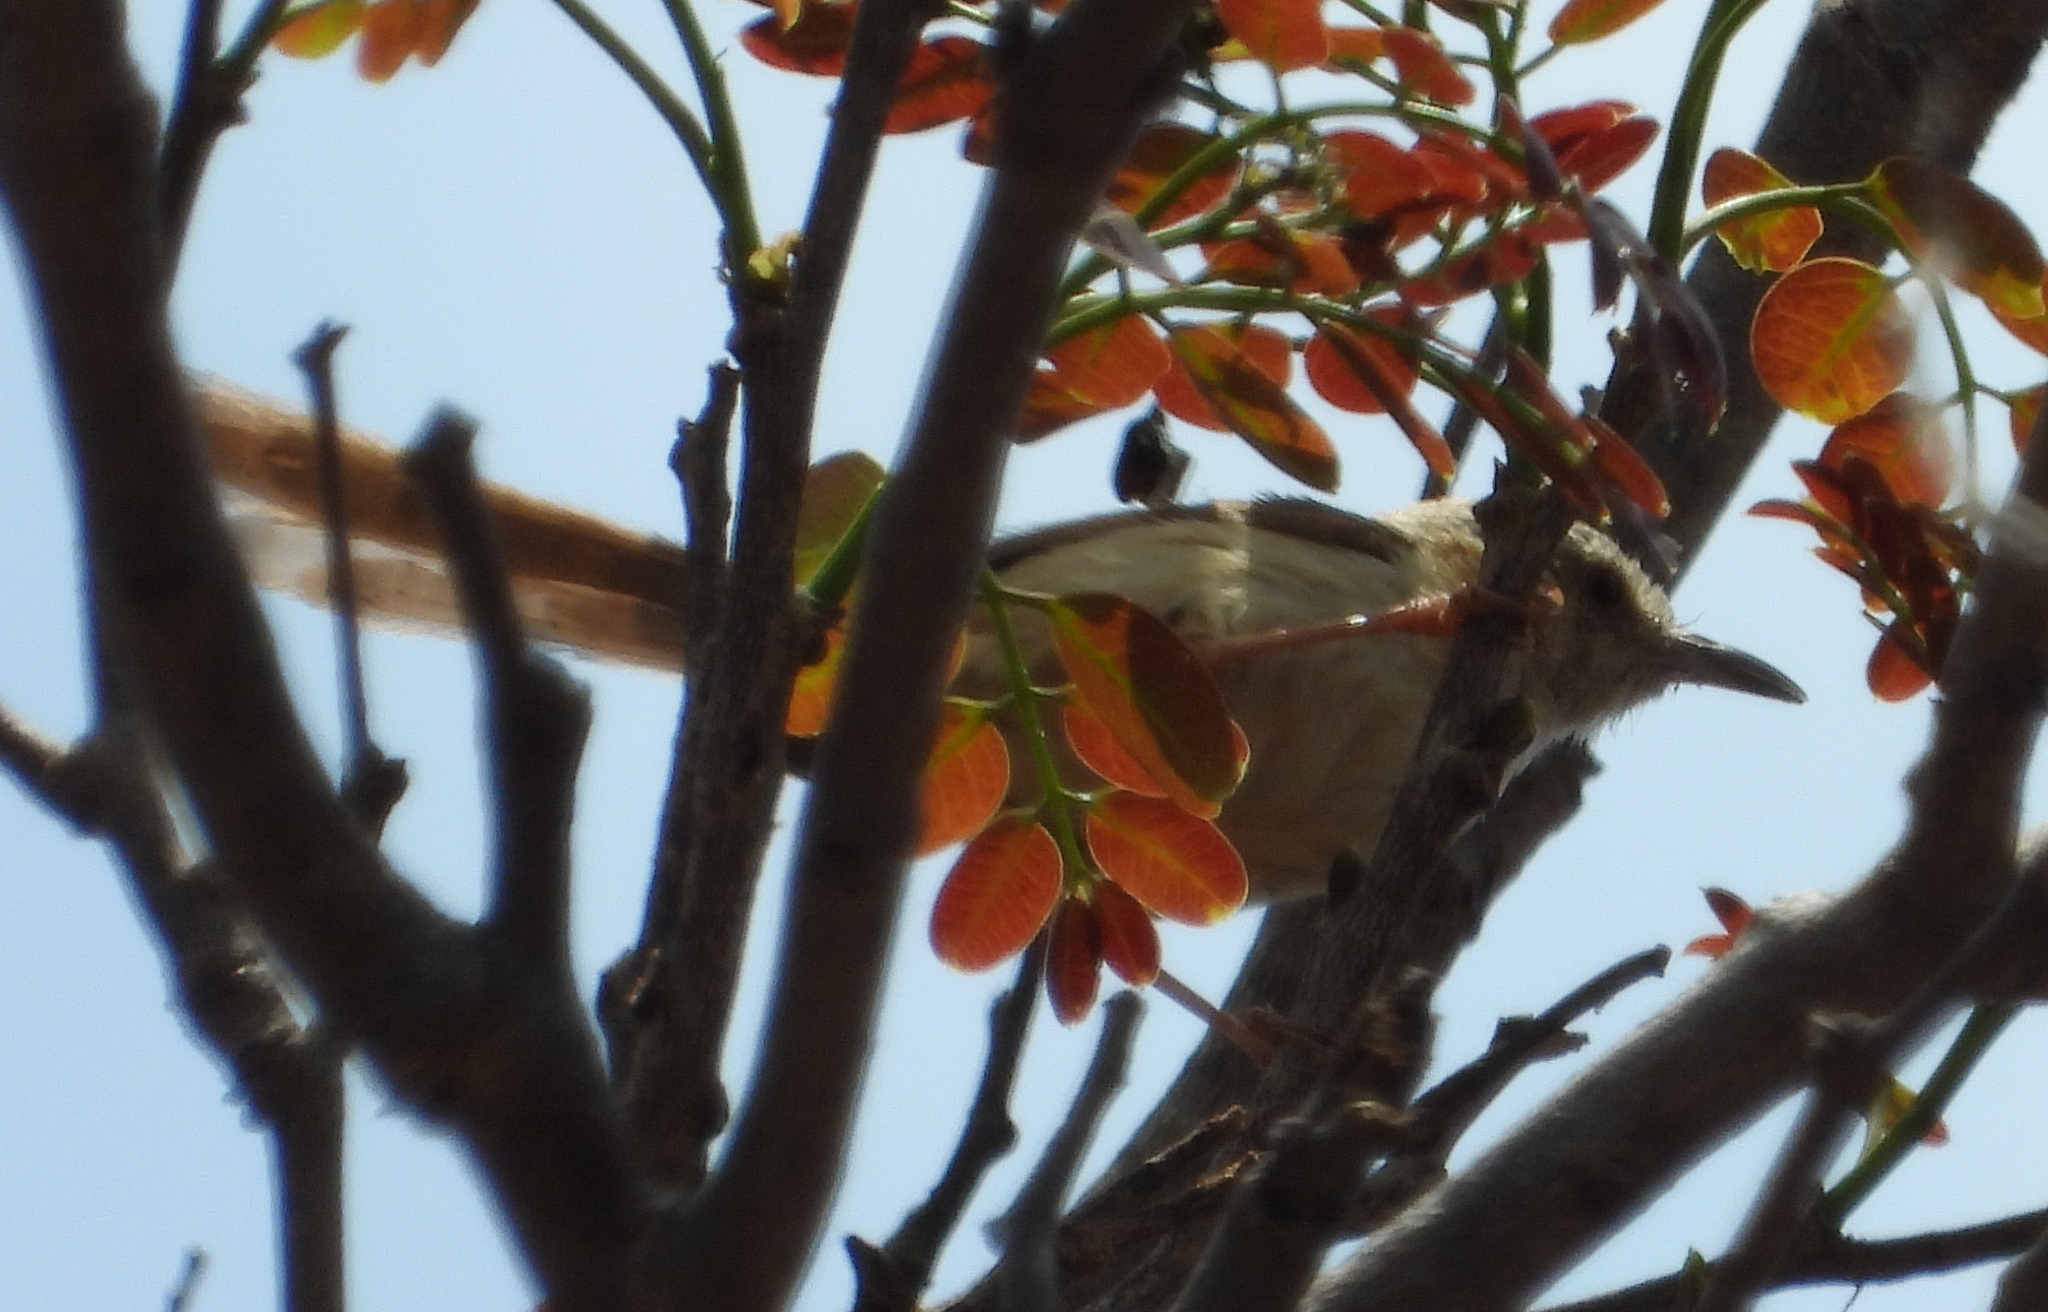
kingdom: Animalia
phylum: Chordata
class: Aves
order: Passeriformes
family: Cisticolidae
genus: Prinia
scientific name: Prinia subflava
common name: Tawny-flanked prinia
